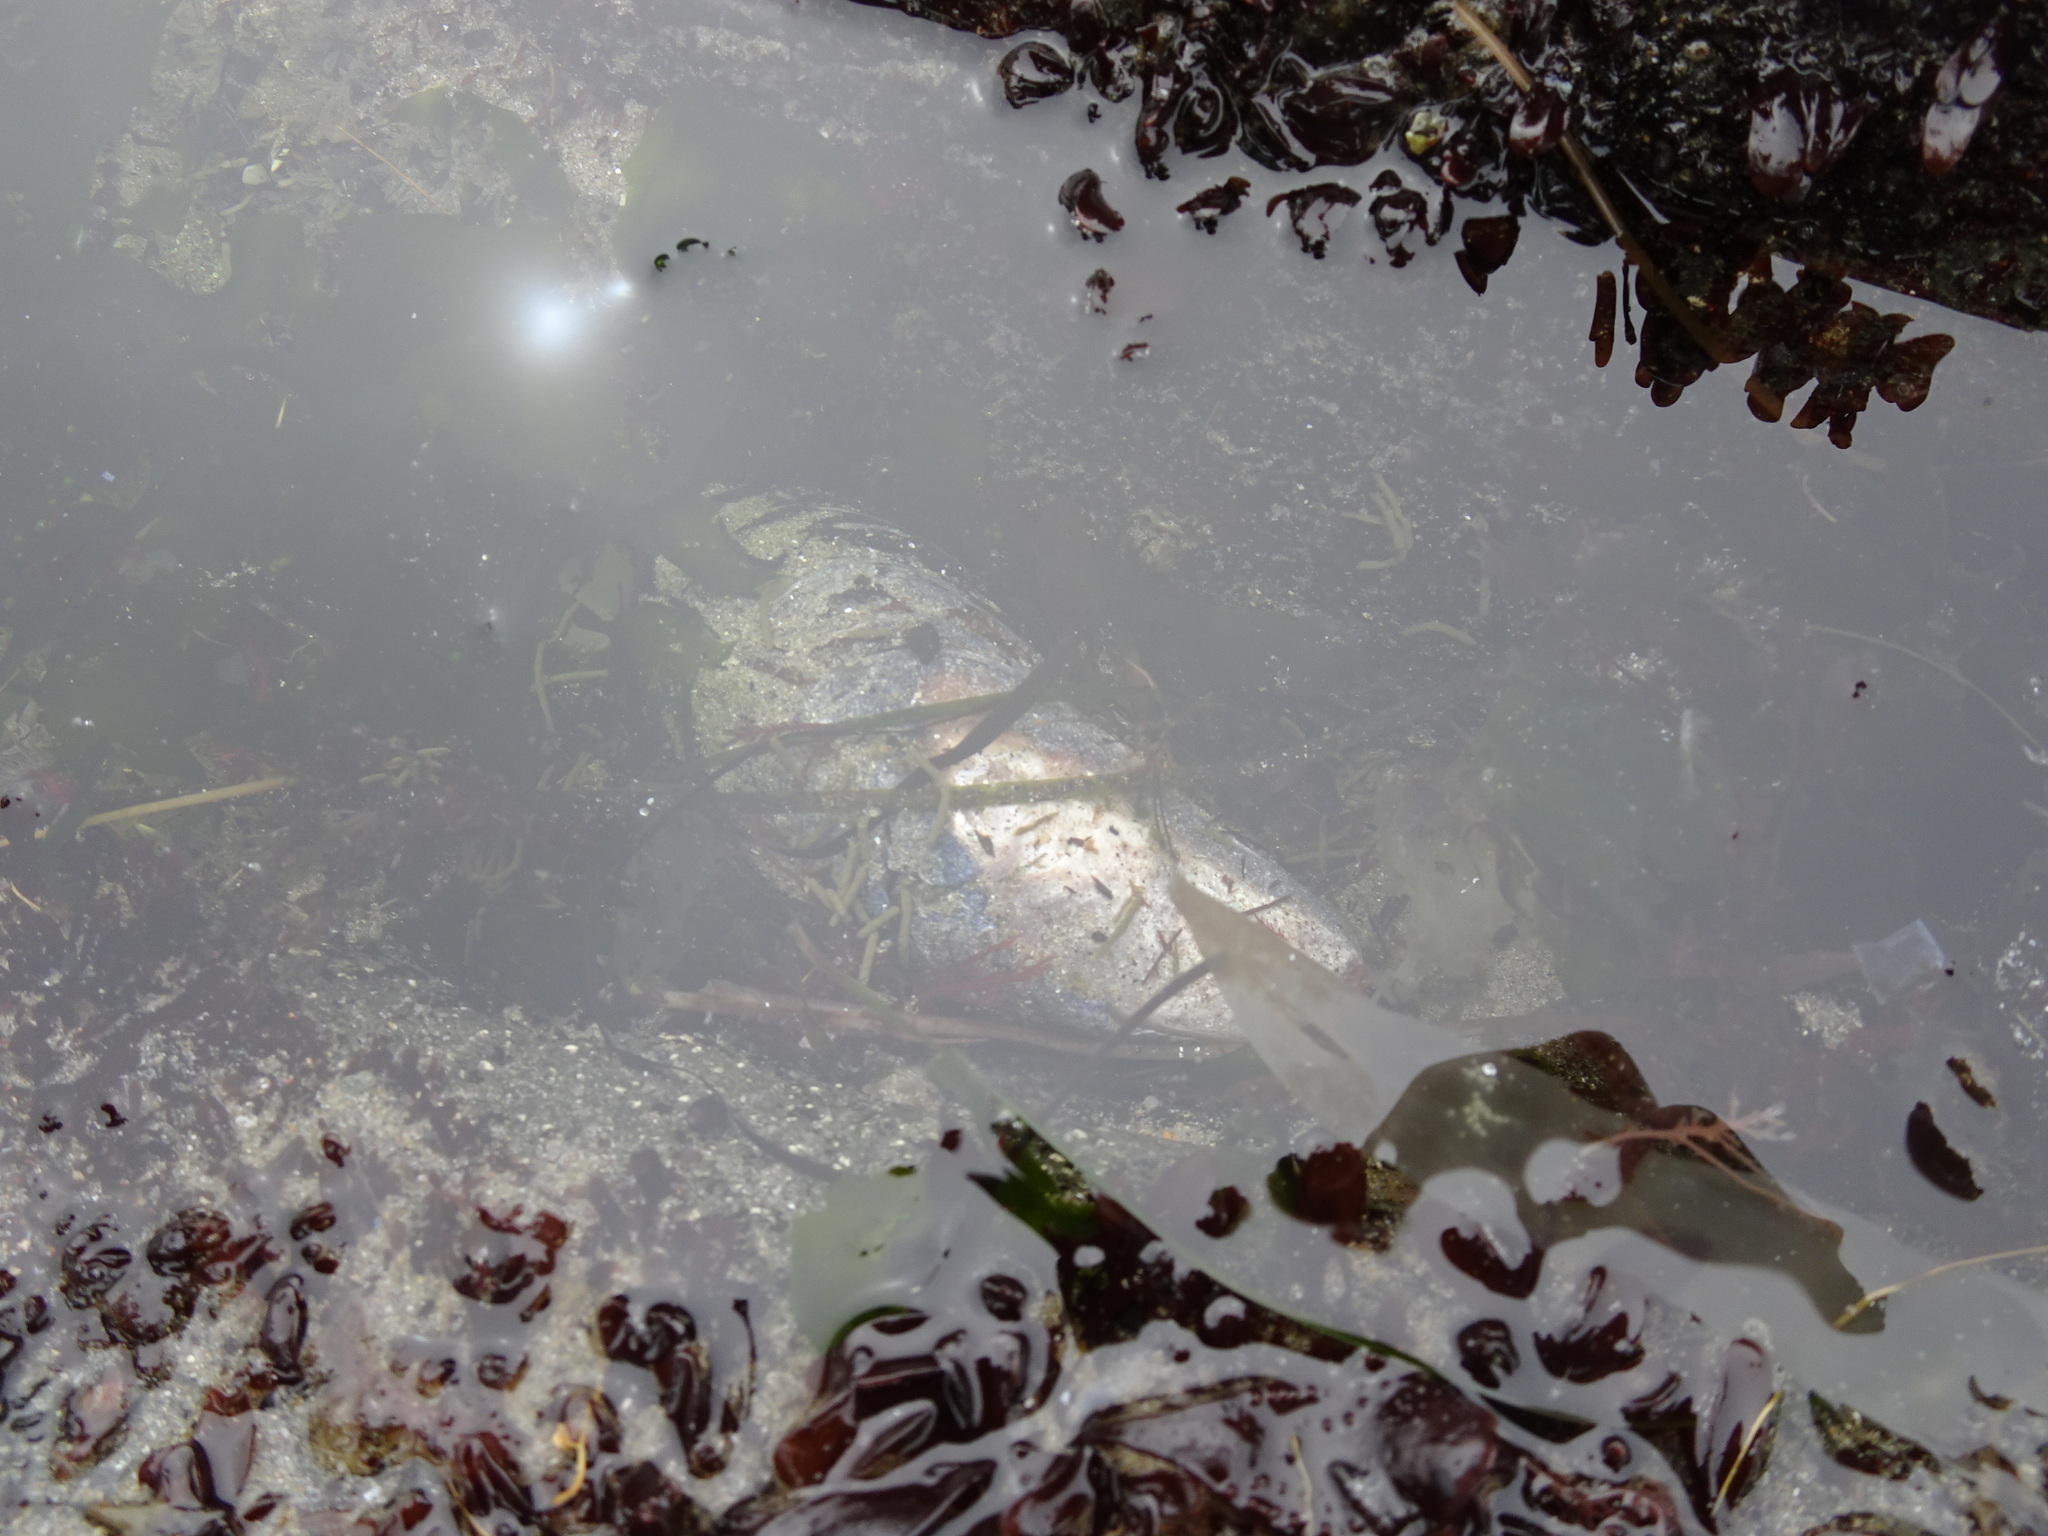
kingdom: Animalia
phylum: Mollusca
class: Bivalvia
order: Mytilida
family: Mytilidae
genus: Mytilus
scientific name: Mytilus californianus
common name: California mussel
